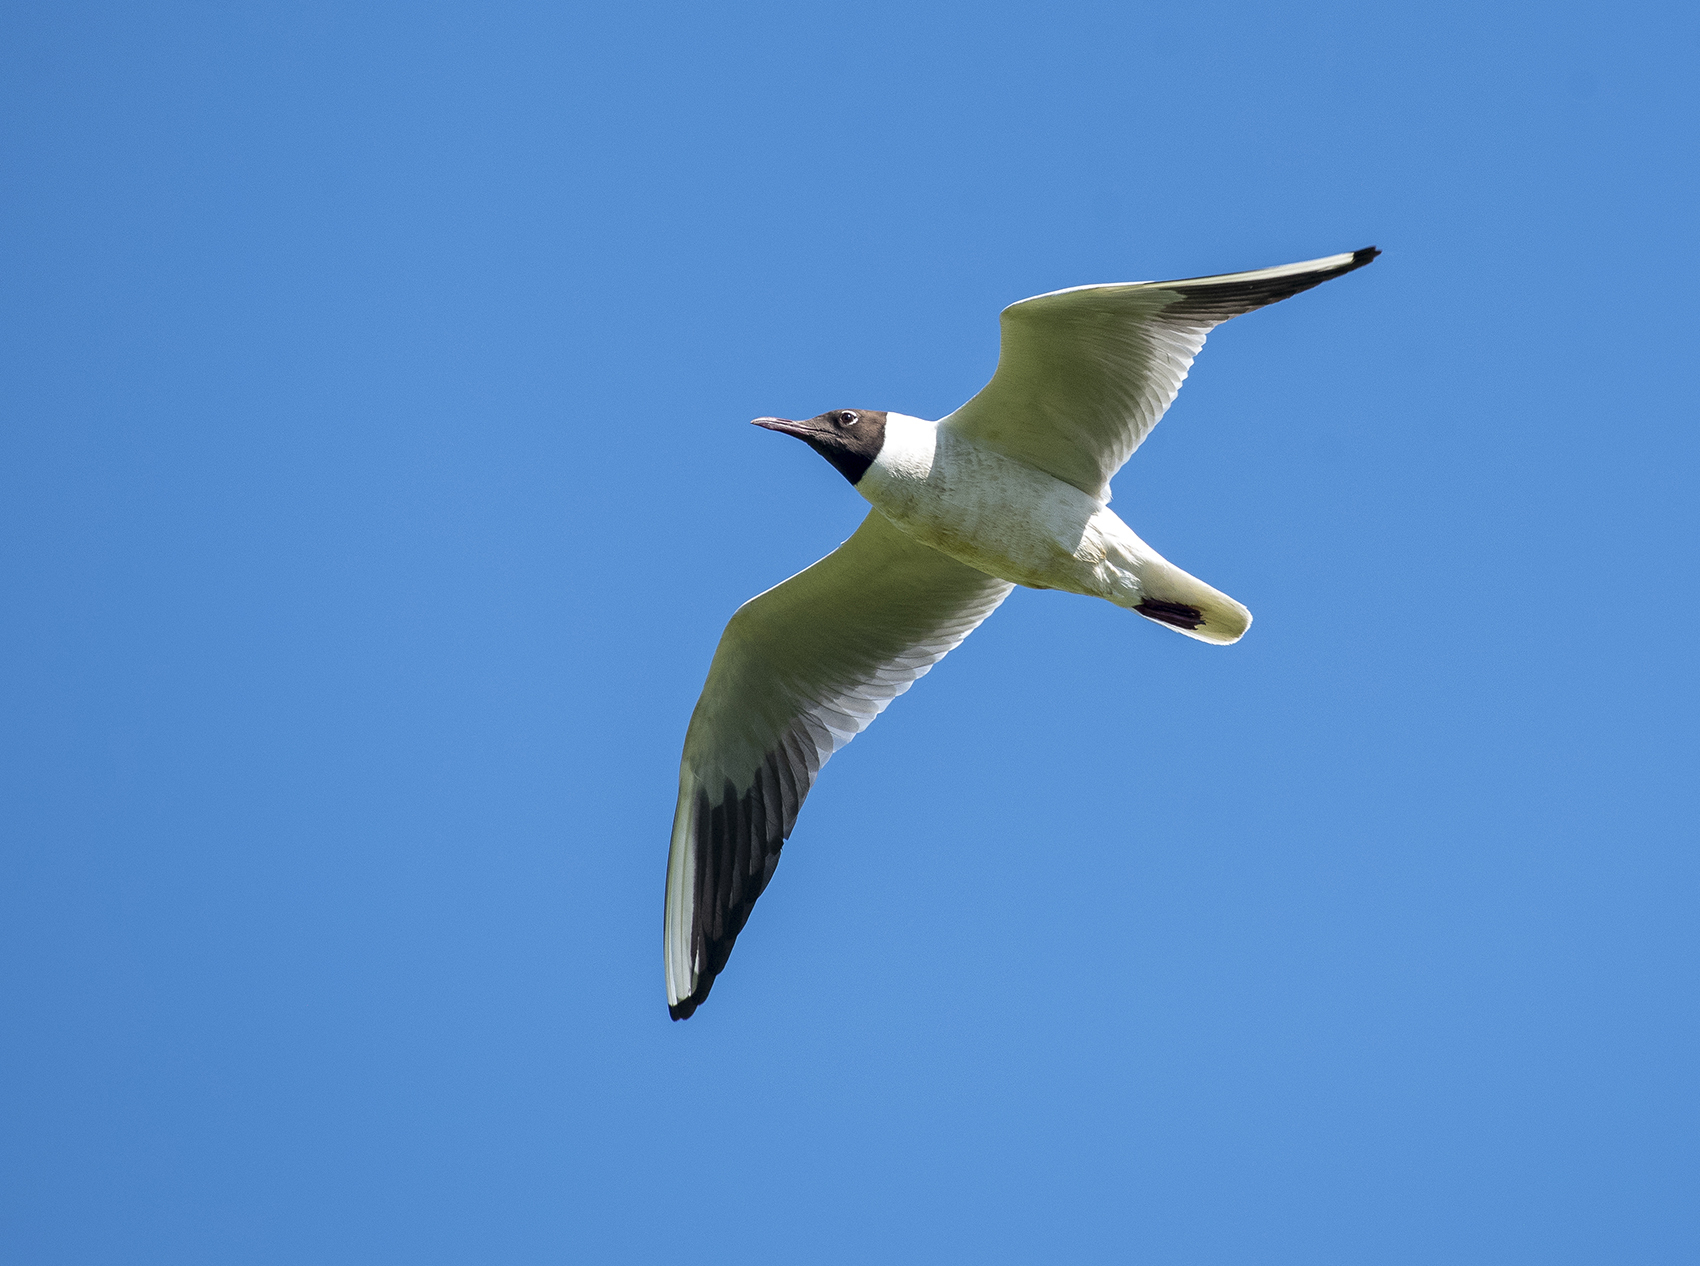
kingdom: Animalia
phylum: Chordata
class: Aves
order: Charadriiformes
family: Laridae
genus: Chroicocephalus
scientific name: Chroicocephalus ridibundus
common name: Black-headed gull
